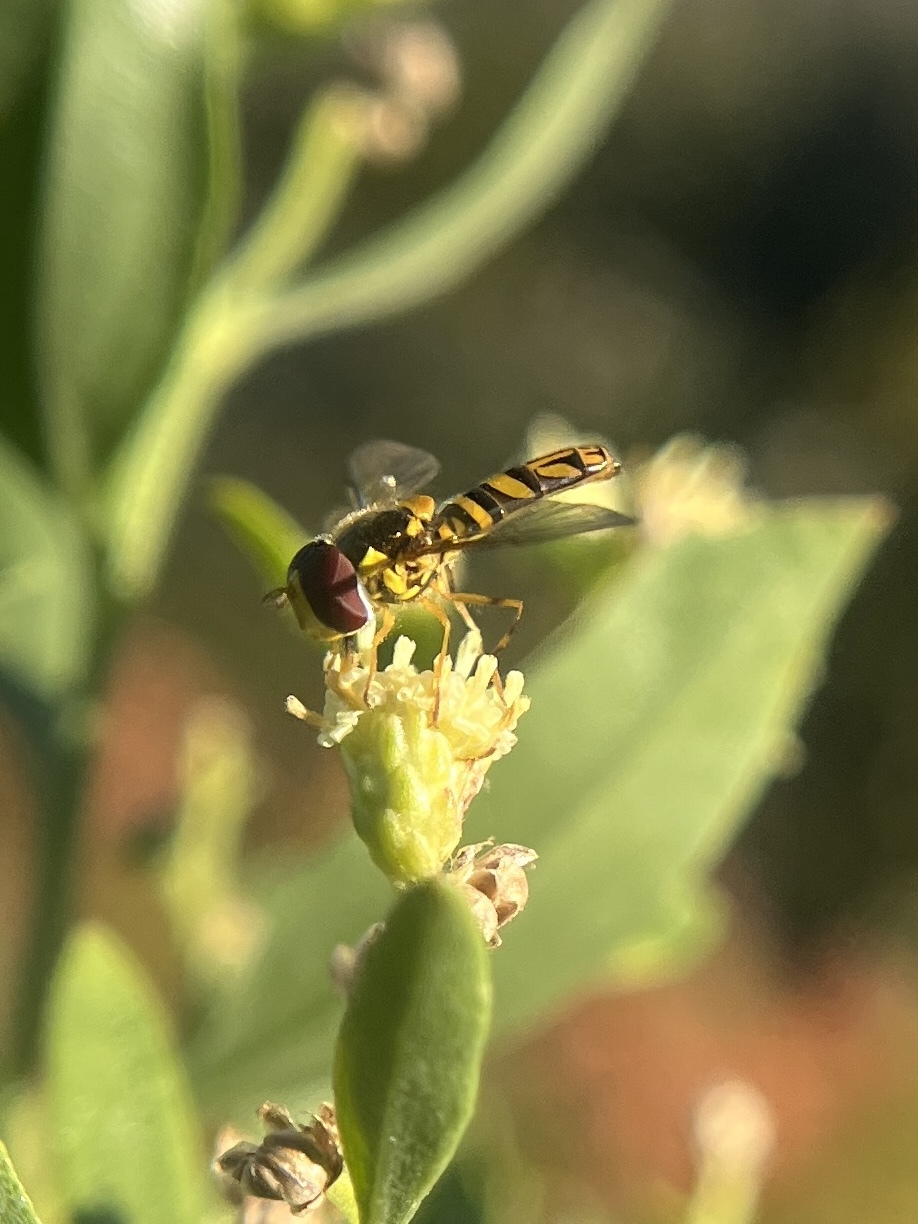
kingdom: Animalia
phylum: Arthropoda
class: Insecta
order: Diptera
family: Syrphidae
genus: Allograpta
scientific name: Allograpta obliqua
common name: Common oblique syrphid
